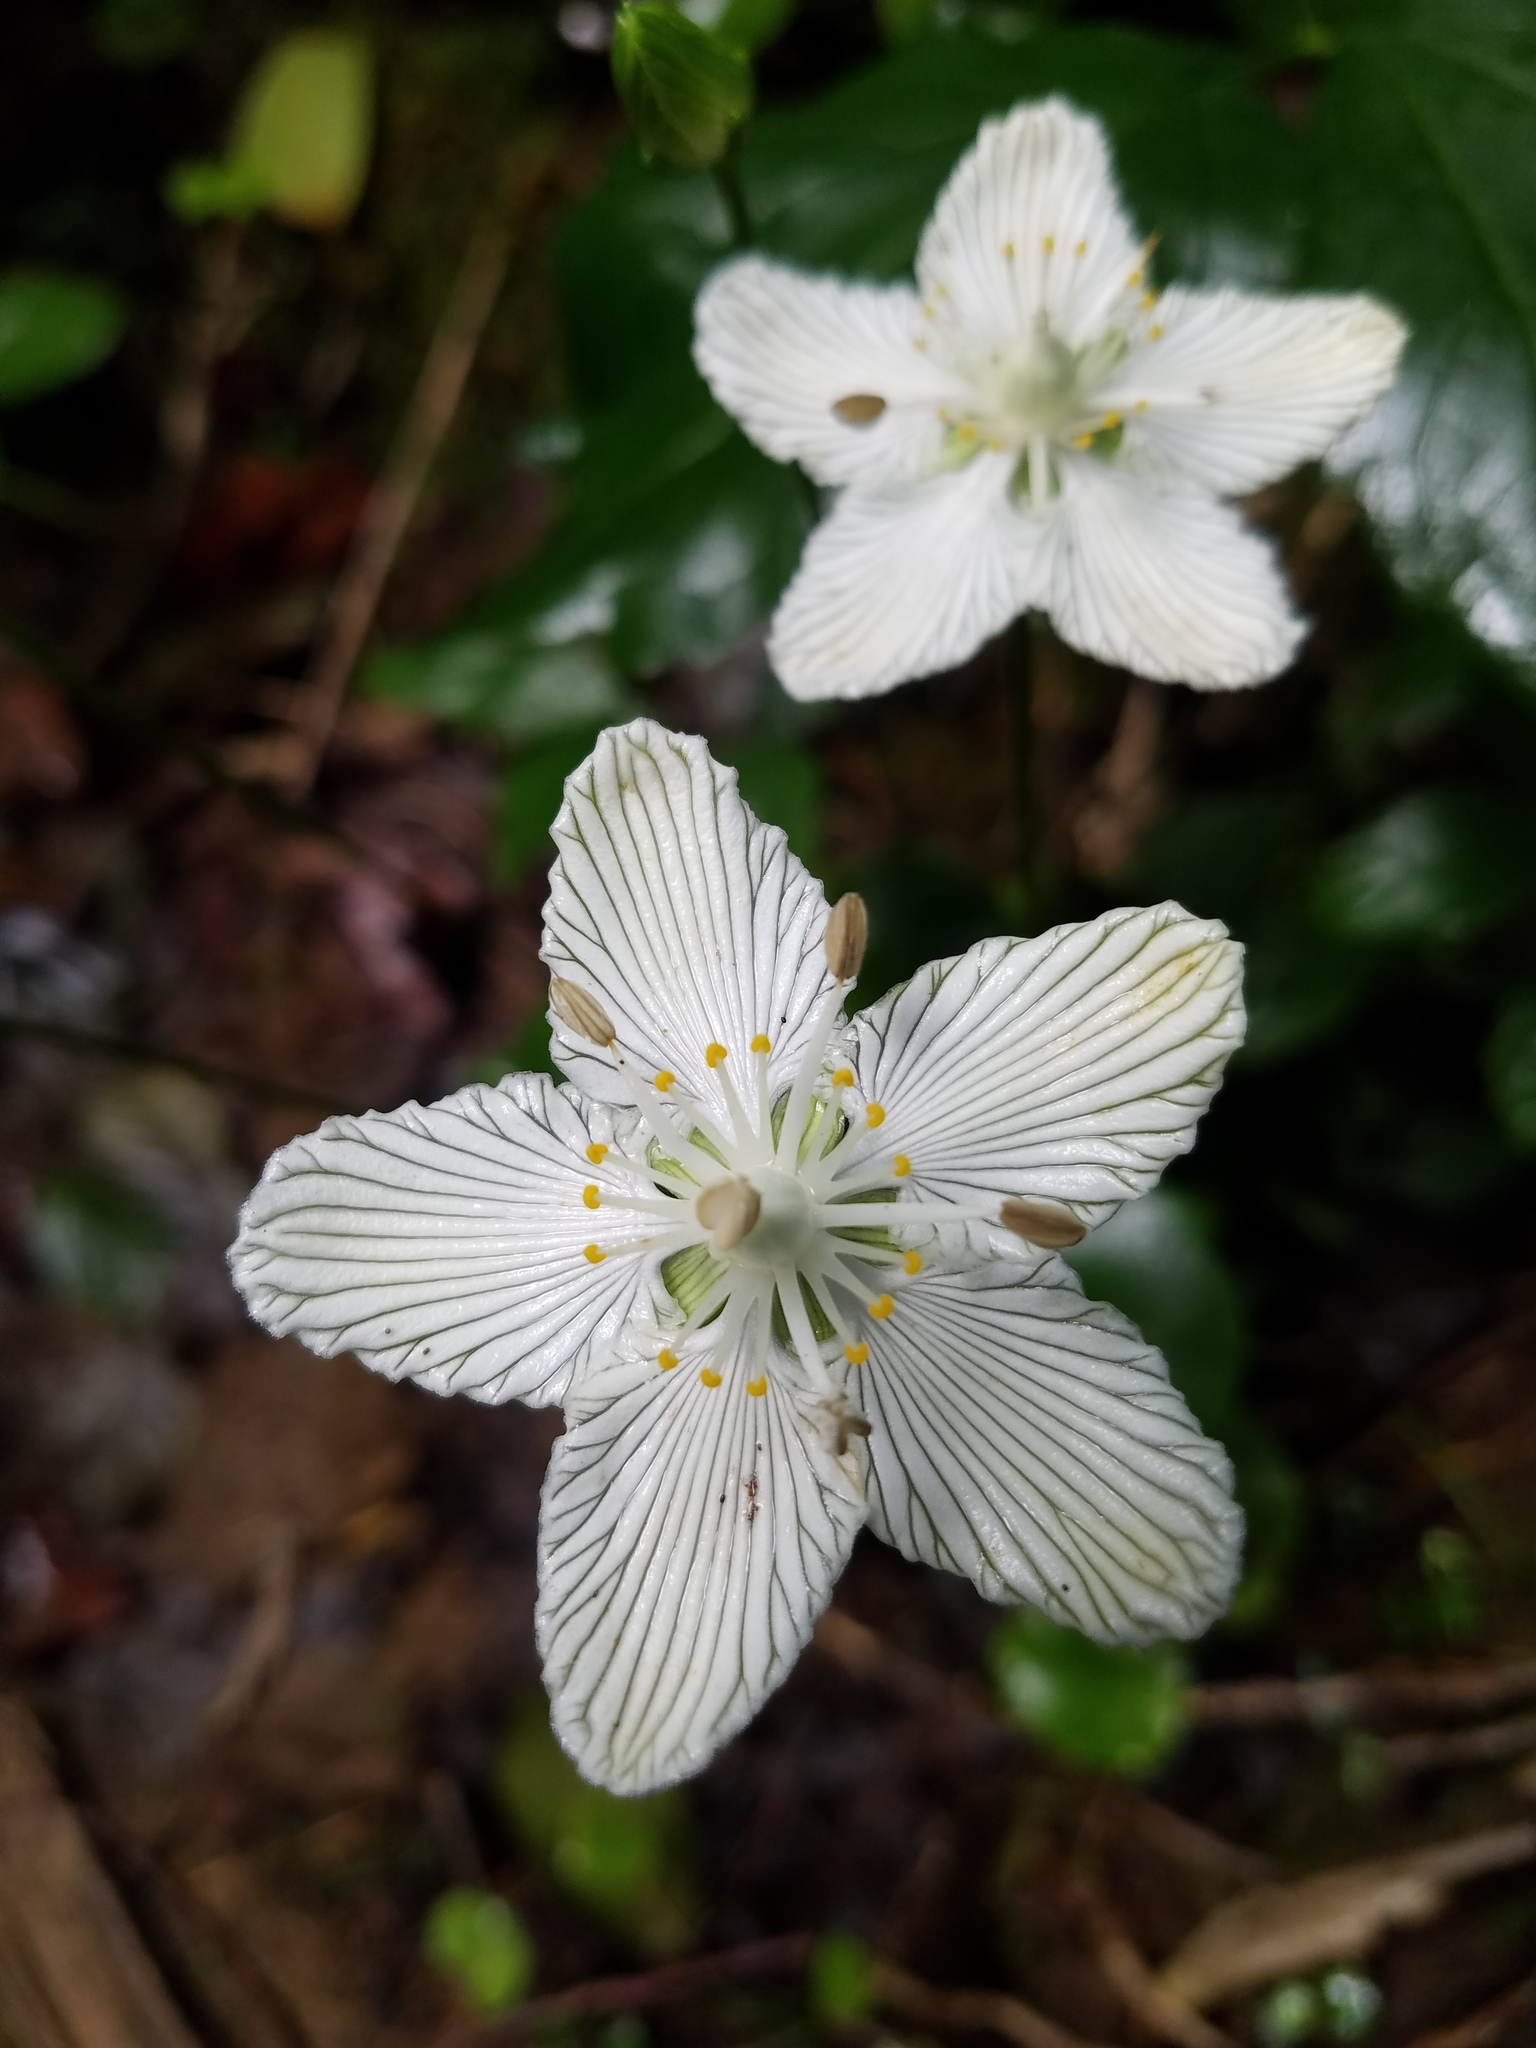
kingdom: Plantae
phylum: Tracheophyta
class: Magnoliopsida
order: Celastrales
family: Parnassiaceae
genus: Parnassia
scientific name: Parnassia asarifolia
